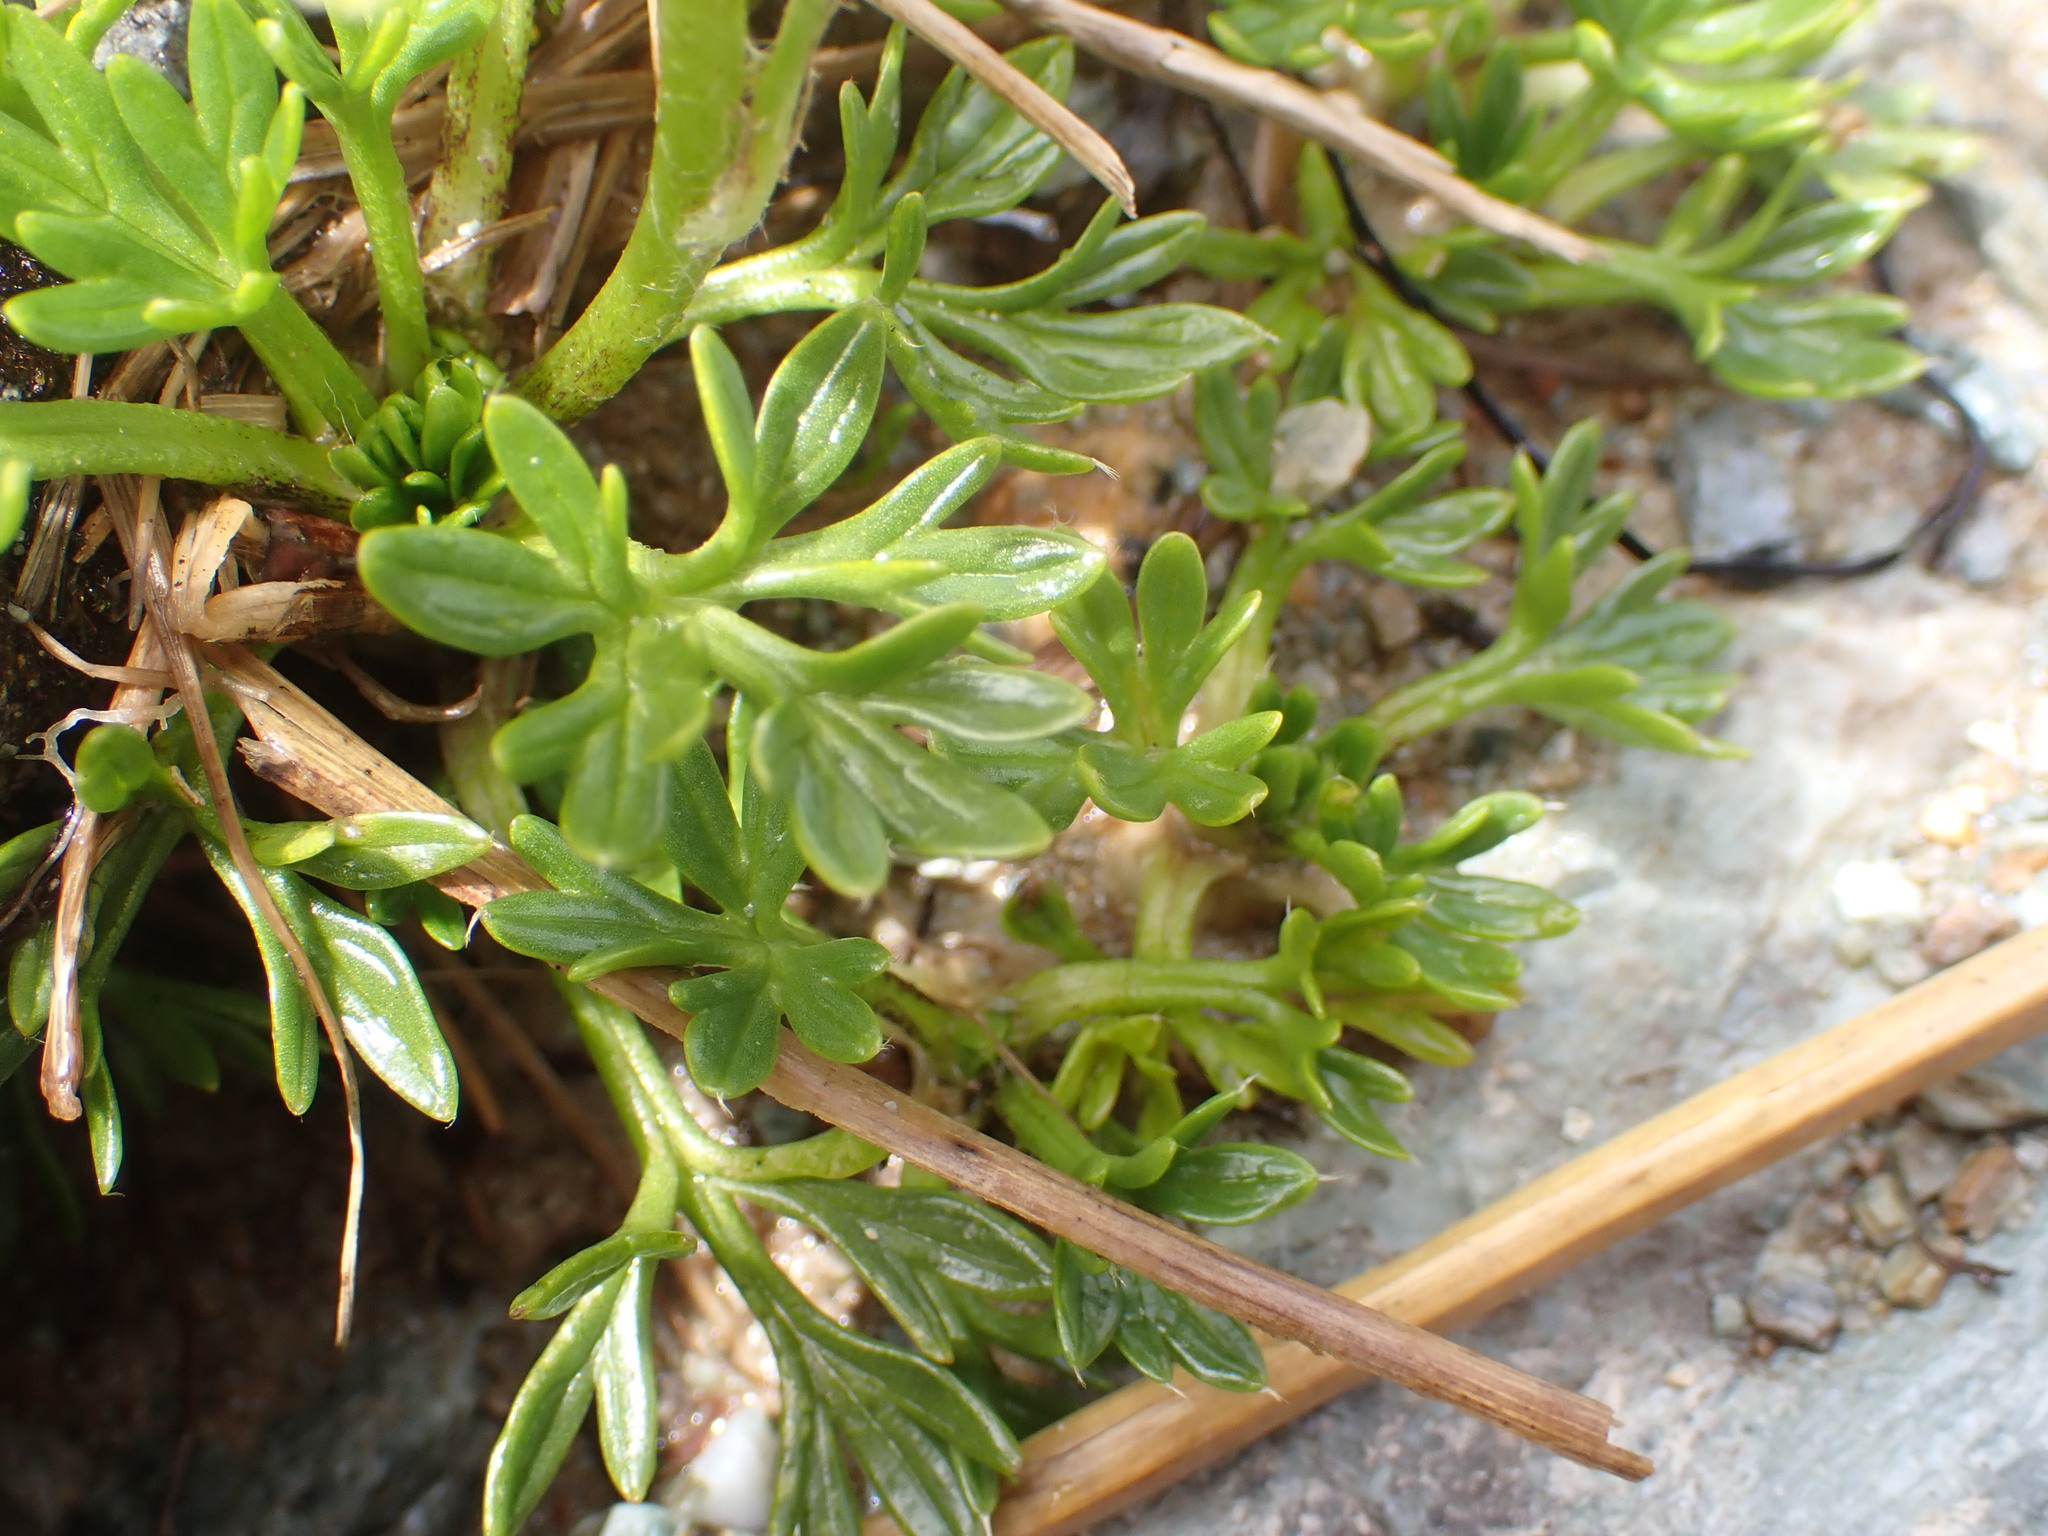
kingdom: Plantae
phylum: Tracheophyta
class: Magnoliopsida
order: Ranunculales
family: Ranunculaceae
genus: Ranunculus
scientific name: Ranunculus sericophyllus
